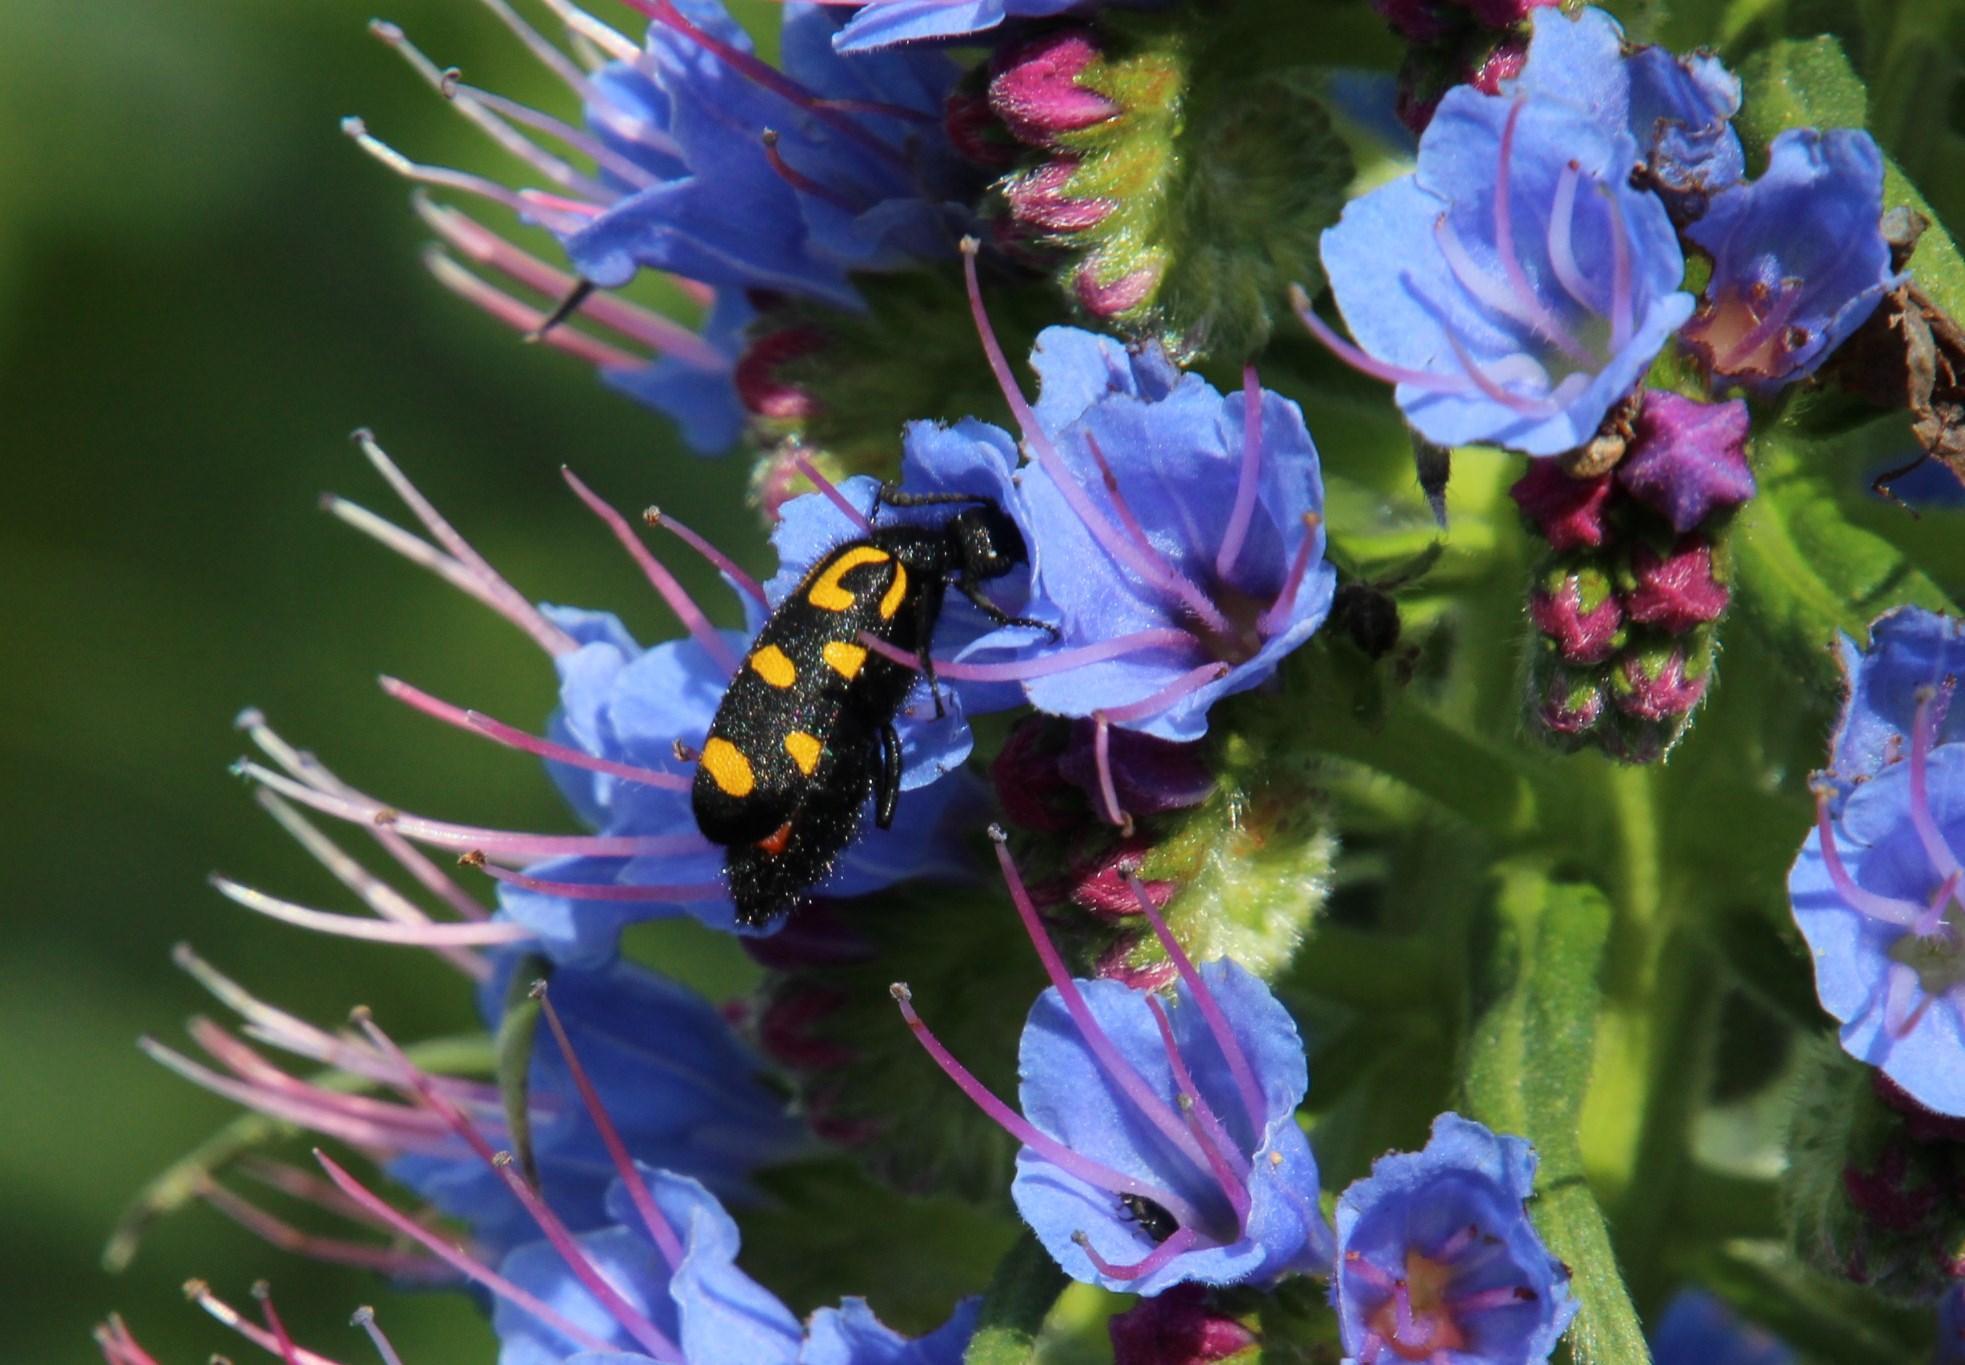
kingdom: Plantae
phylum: Tracheophyta
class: Magnoliopsida
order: Boraginales
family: Boraginaceae
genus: Echium
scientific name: Echium candicans
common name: Pride of madeira
